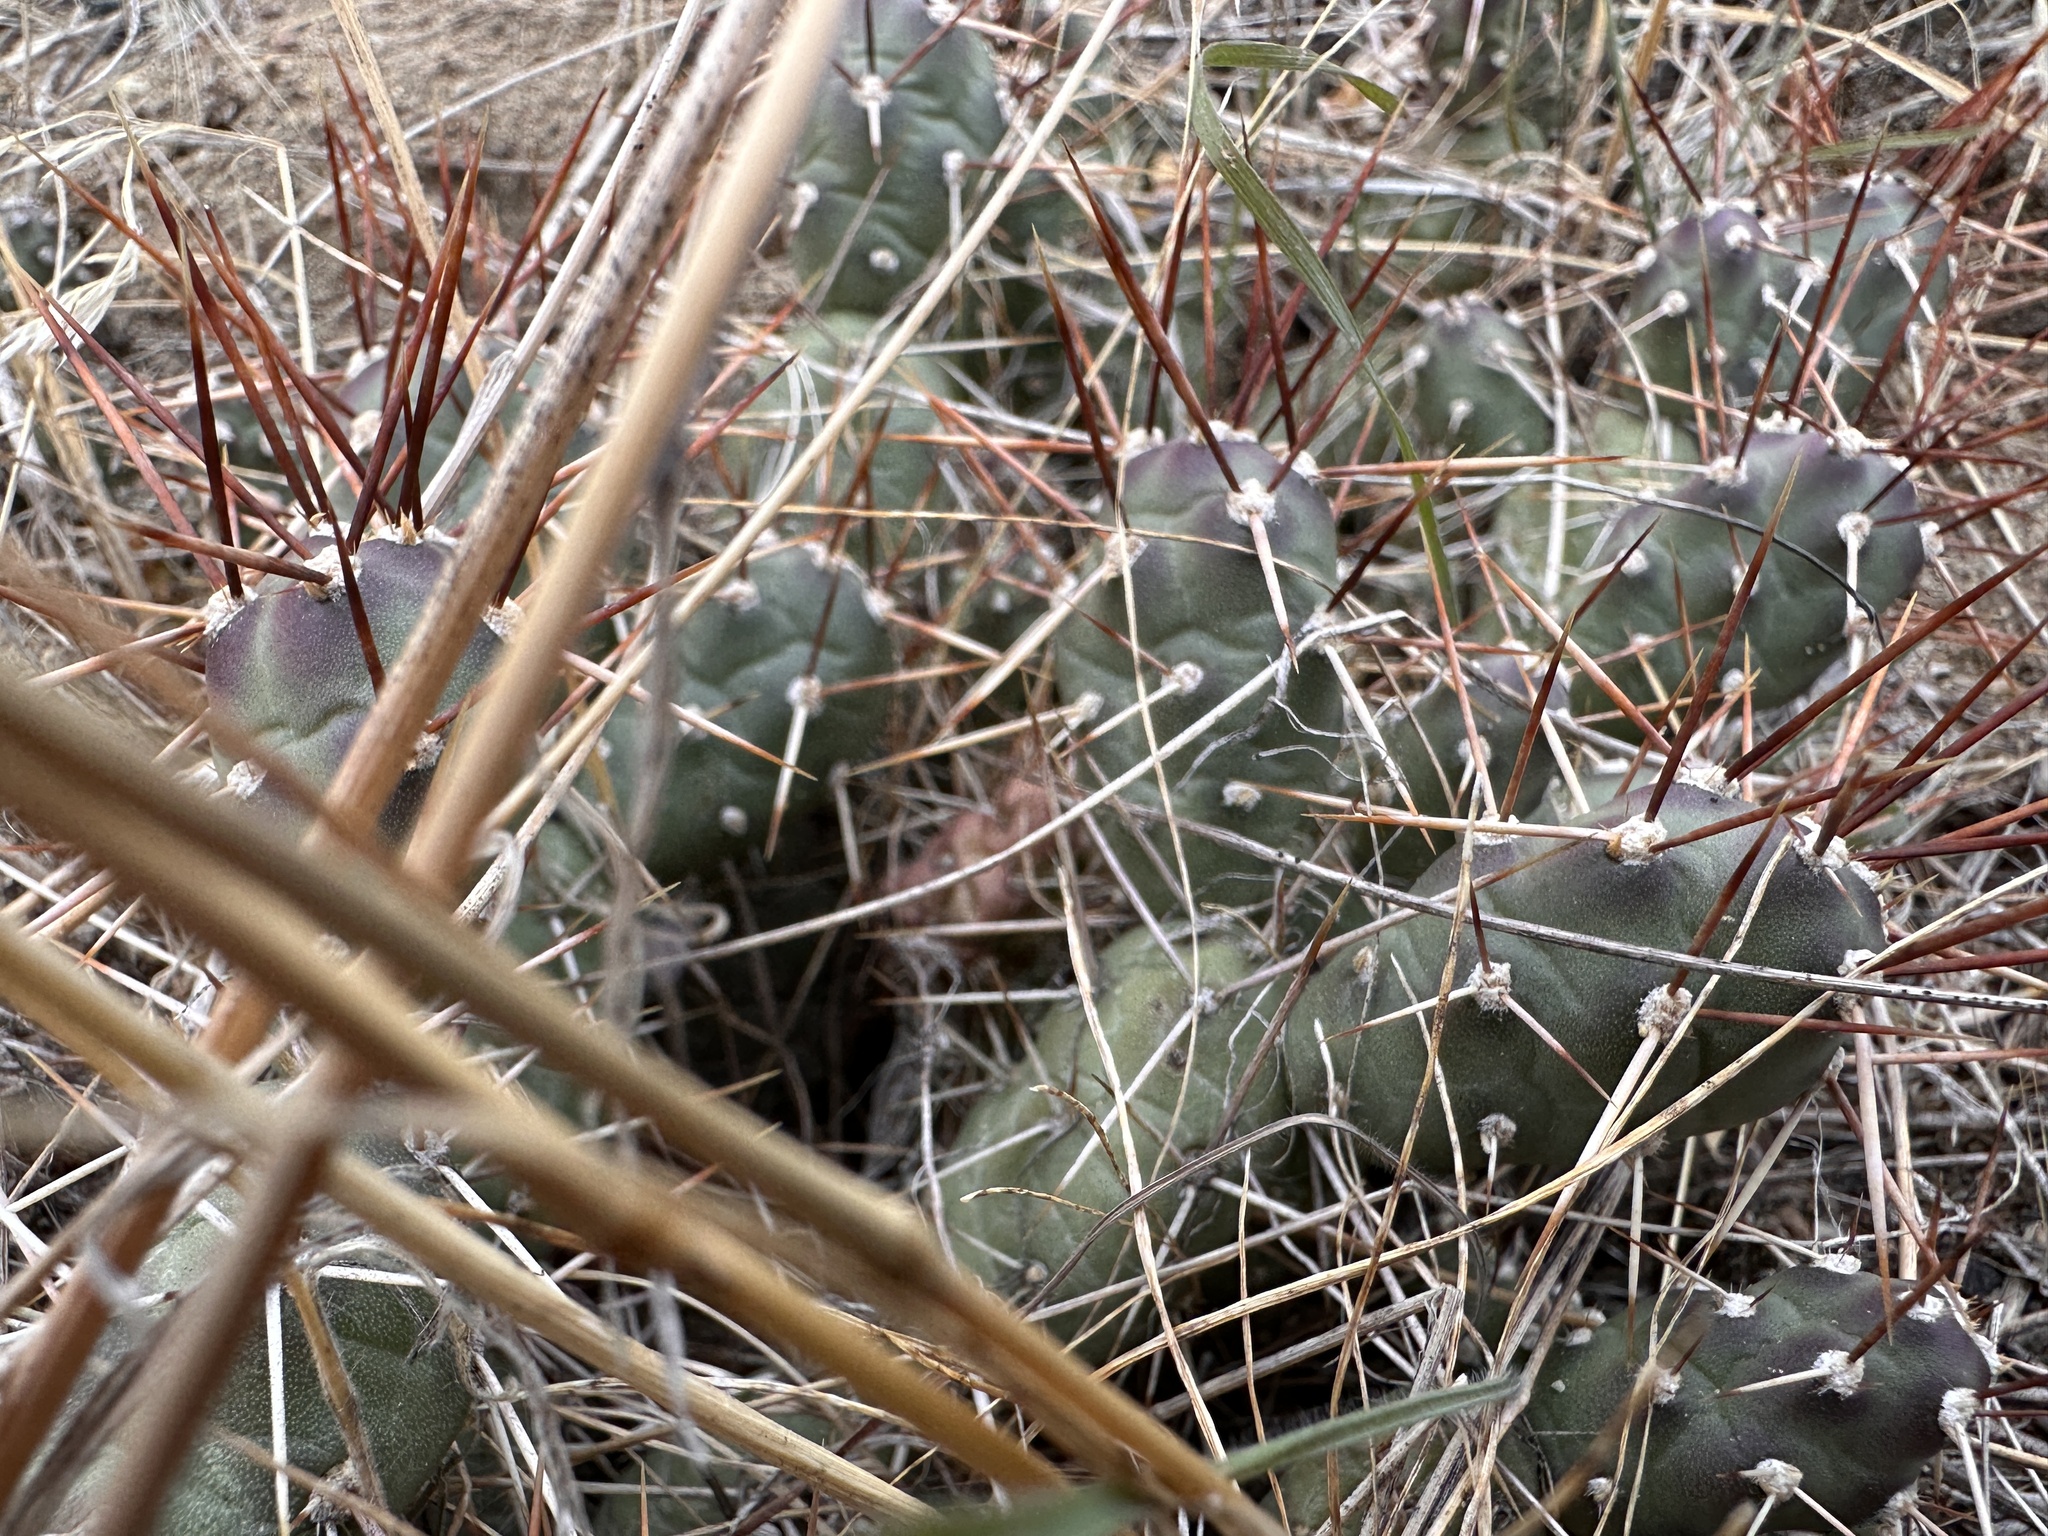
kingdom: Plantae
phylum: Tracheophyta
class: Magnoliopsida
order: Caryophyllales
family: Cactaceae
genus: Opuntia
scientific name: Opuntia fragilis
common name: Brittle cactus
